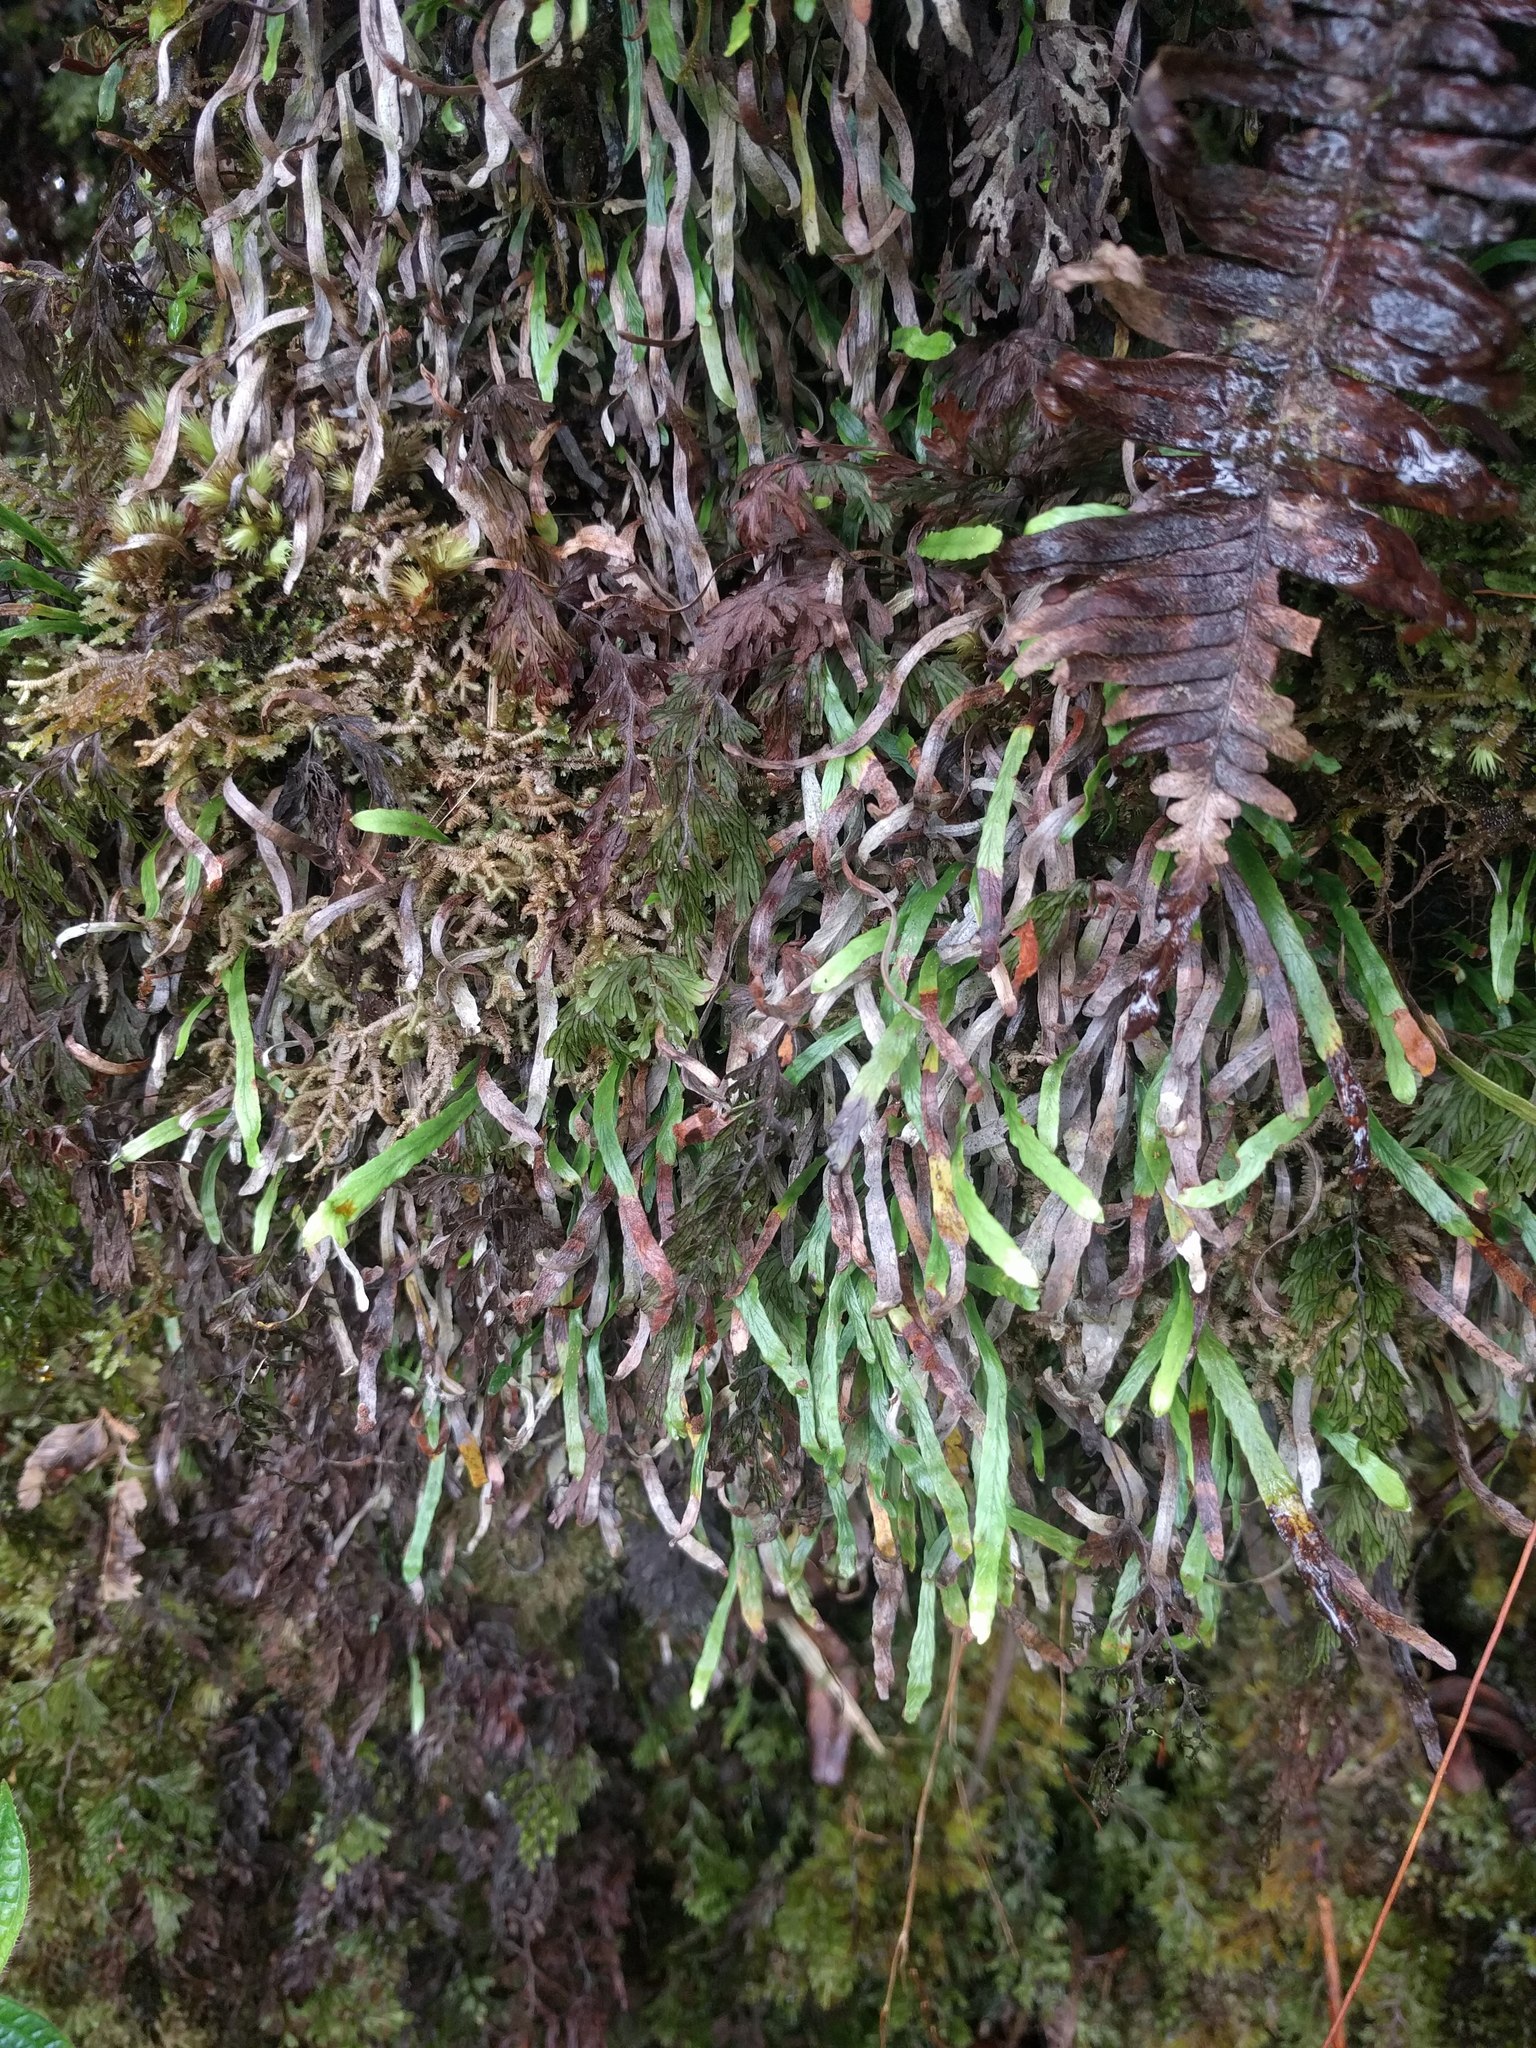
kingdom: Plantae
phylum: Tracheophyta
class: Polypodiopsida
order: Polypodiales
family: Polypodiaceae
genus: Adenophorus
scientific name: Adenophorus tenellus
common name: Kolokolo
